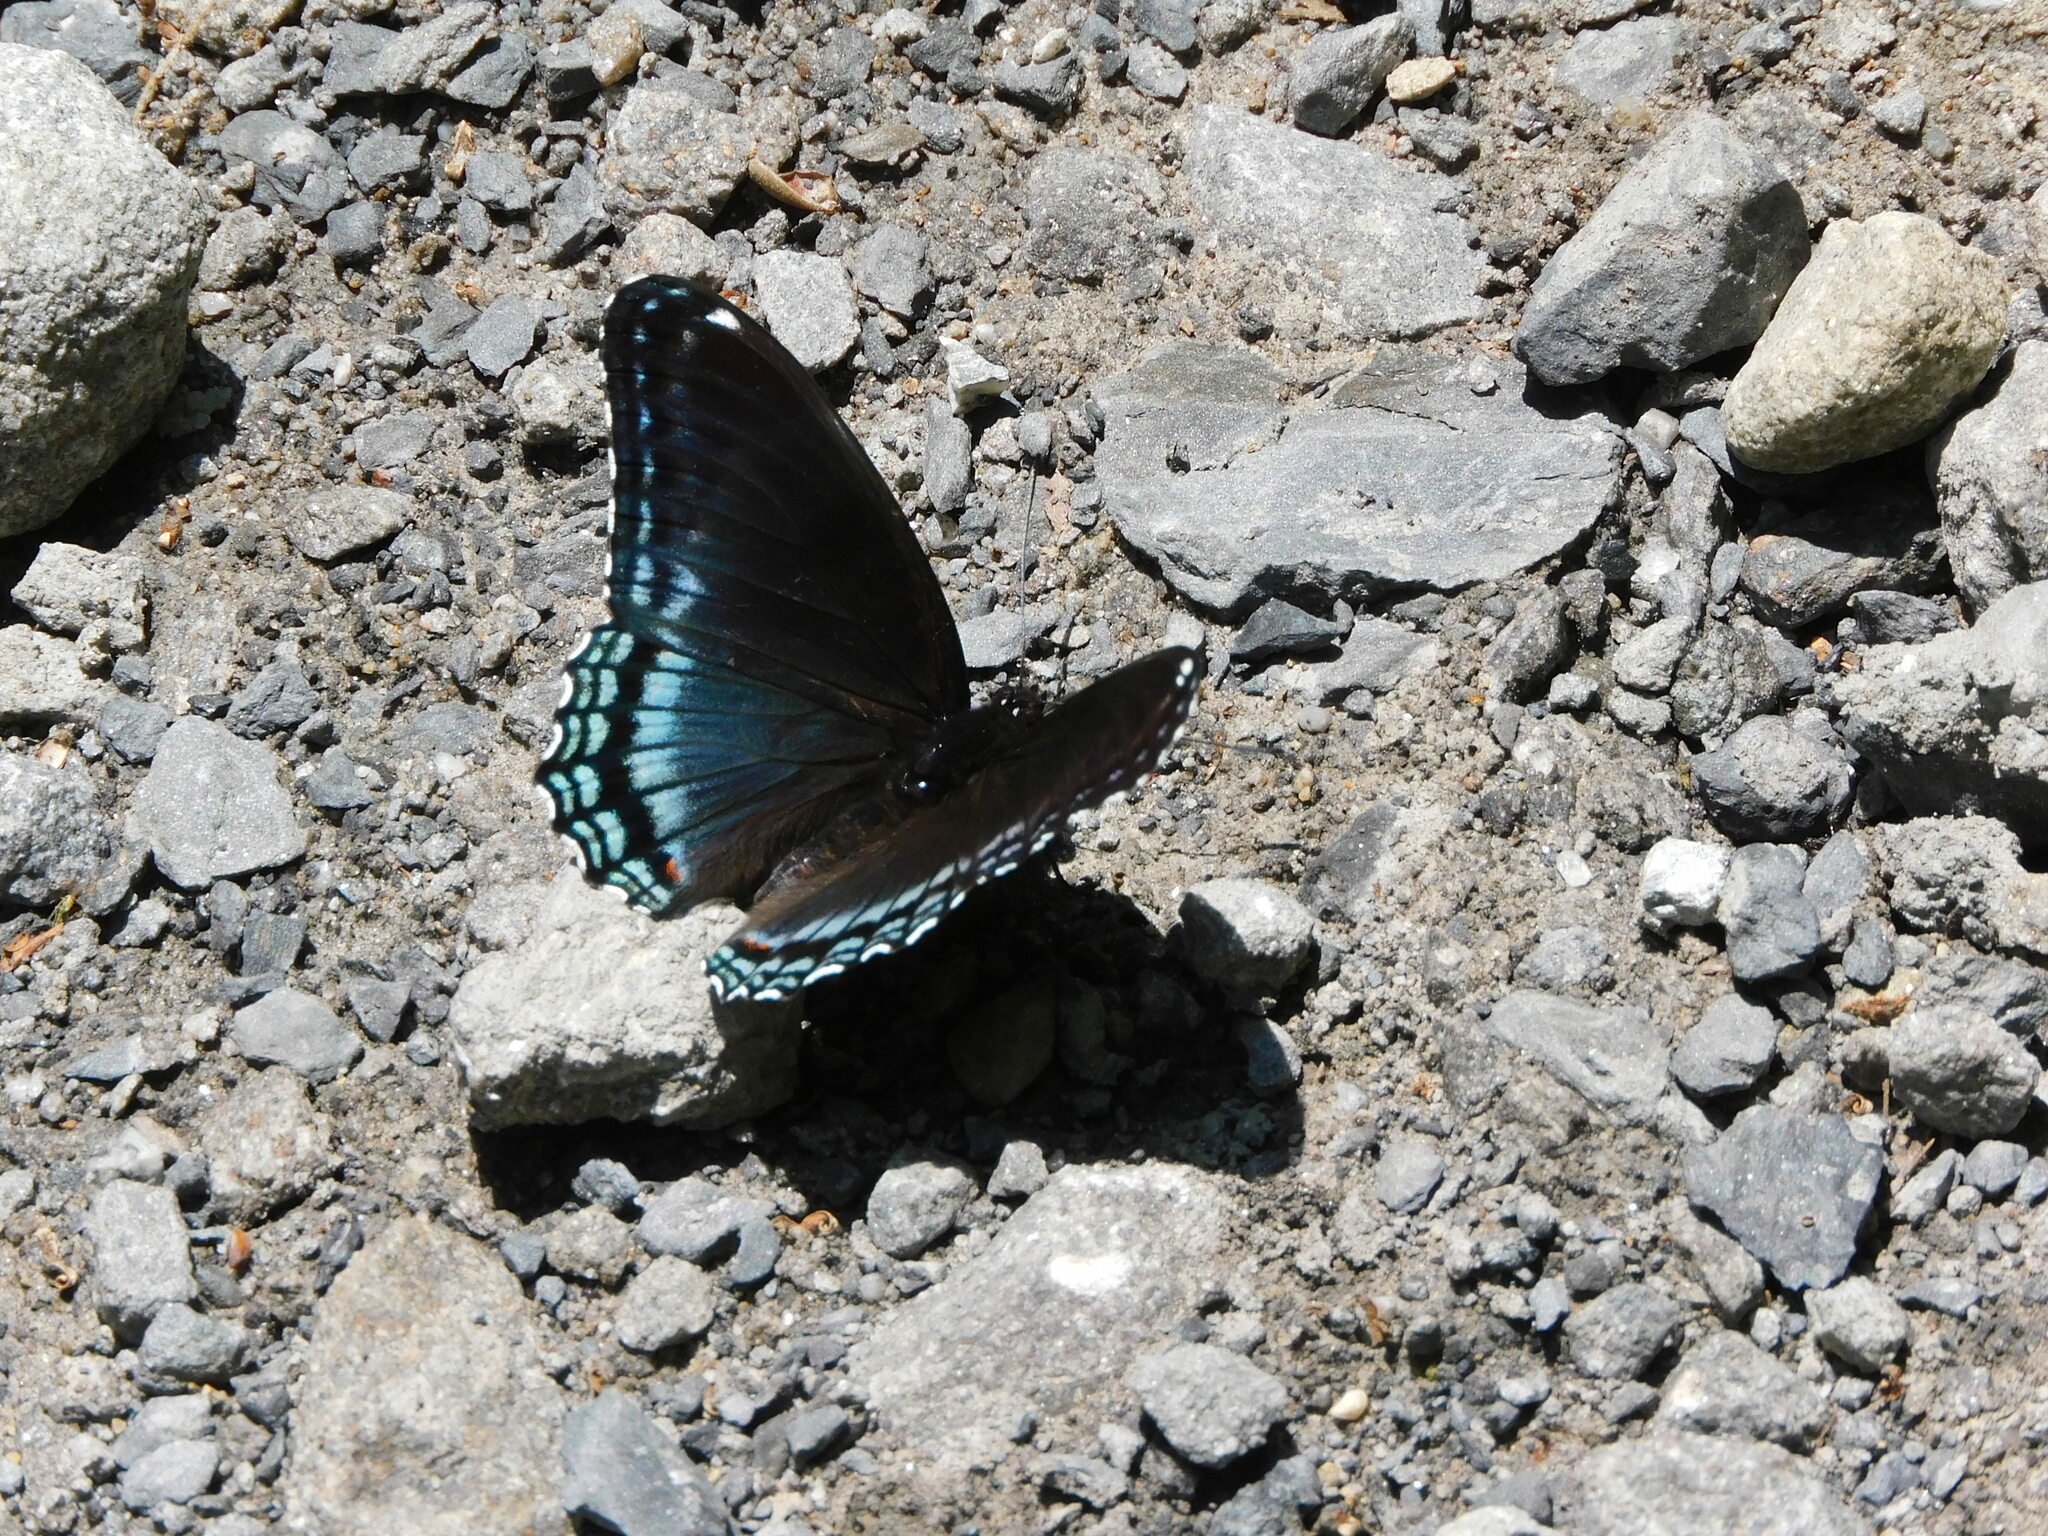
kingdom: Animalia
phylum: Arthropoda
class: Insecta
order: Lepidoptera
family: Nymphalidae
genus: Limenitis
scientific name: Limenitis arthemis
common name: Red-spotted admiral
